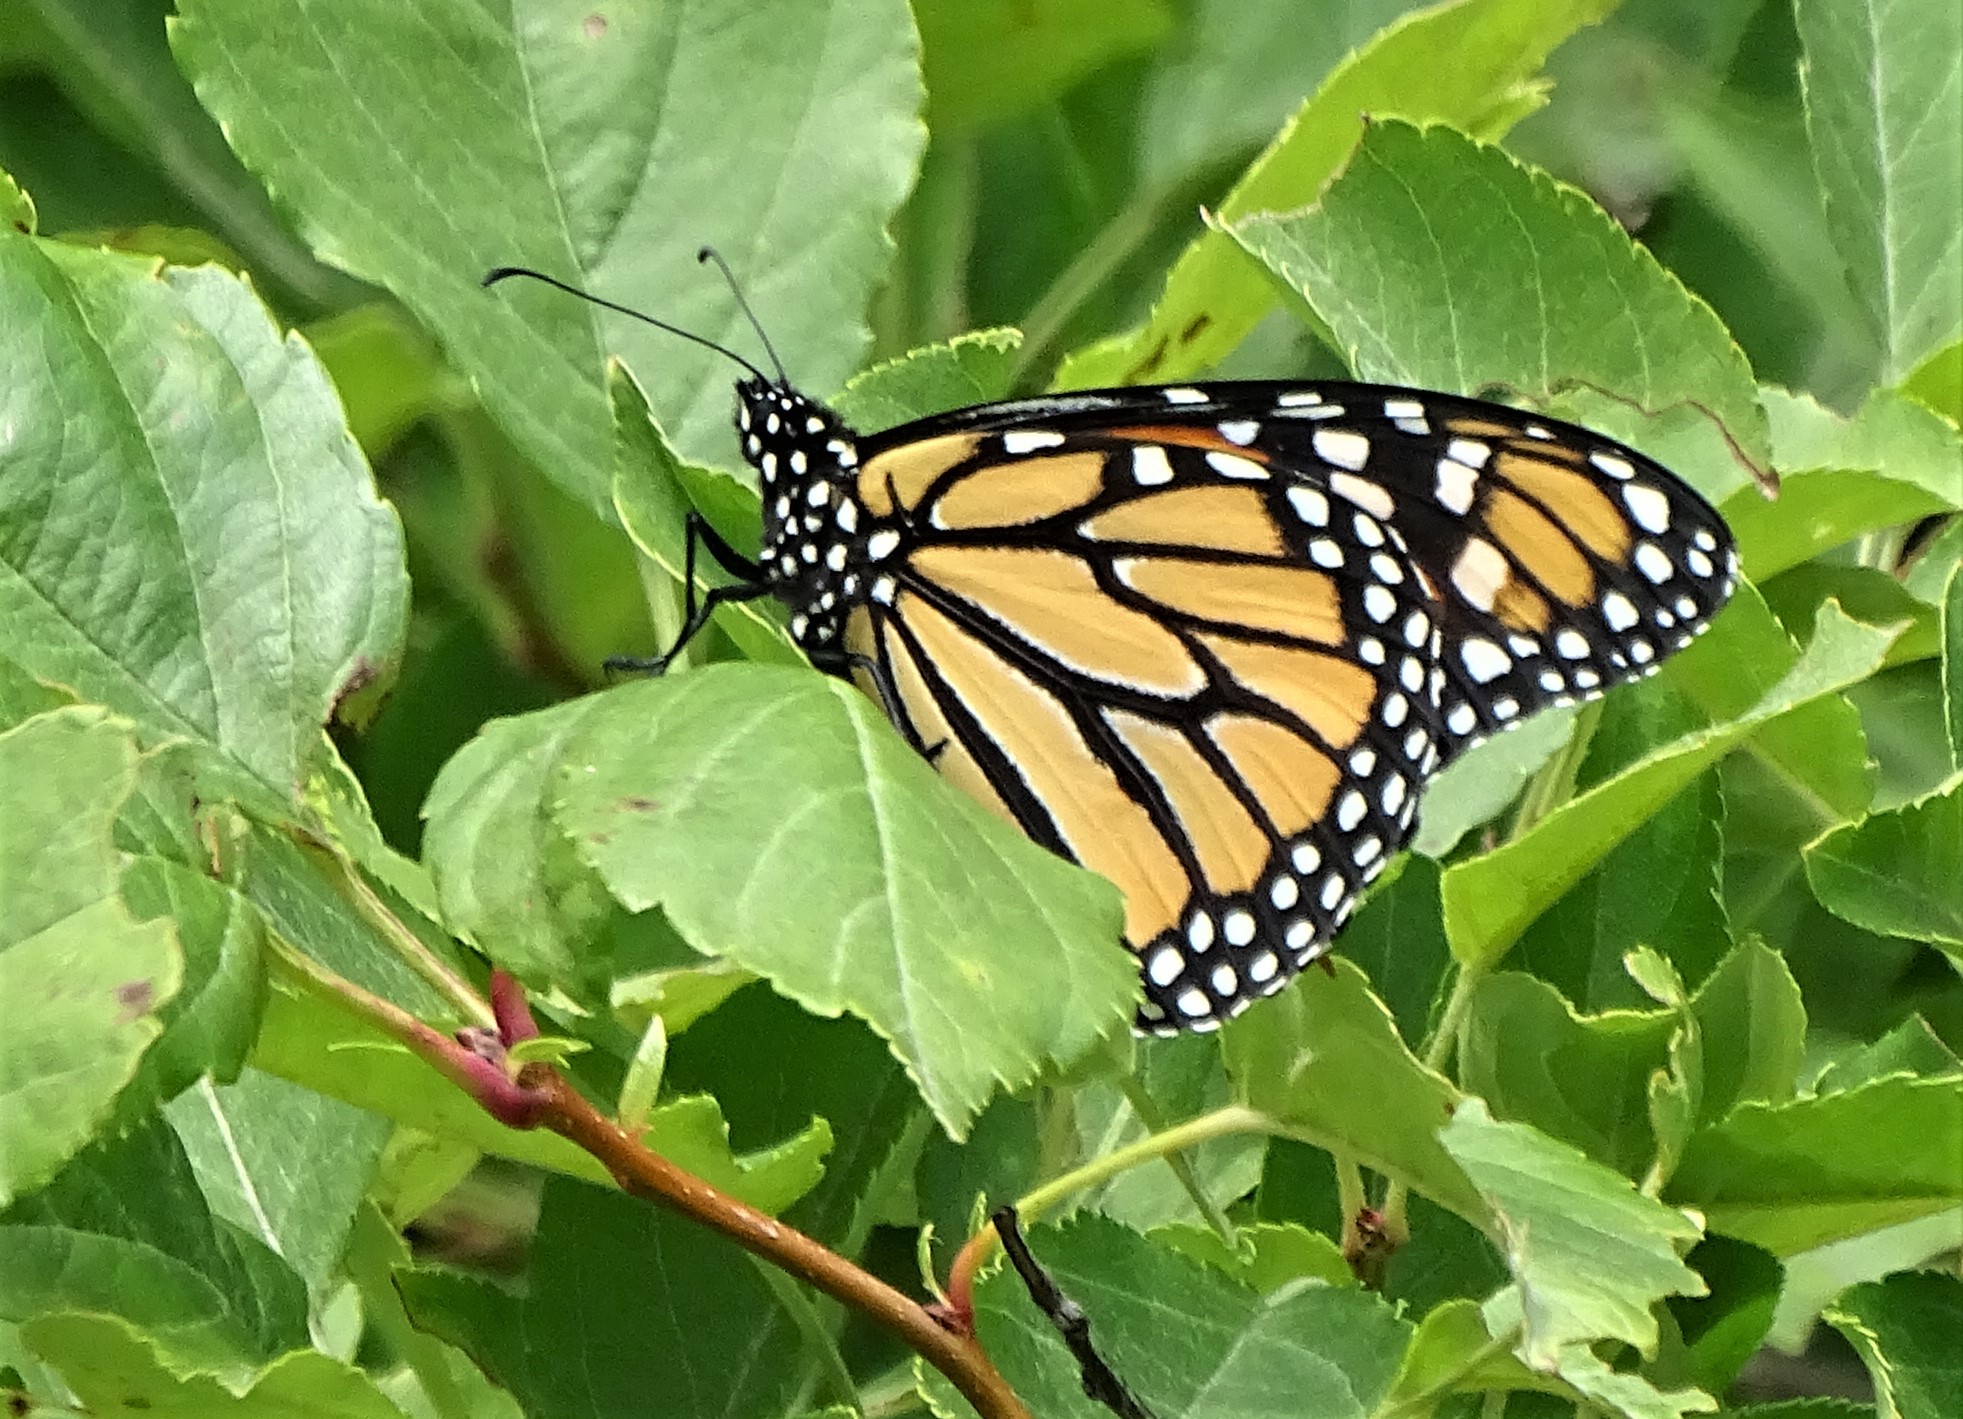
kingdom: Animalia
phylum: Arthropoda
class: Insecta
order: Lepidoptera
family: Nymphalidae
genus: Danaus
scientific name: Danaus plexippus
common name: Monarch
